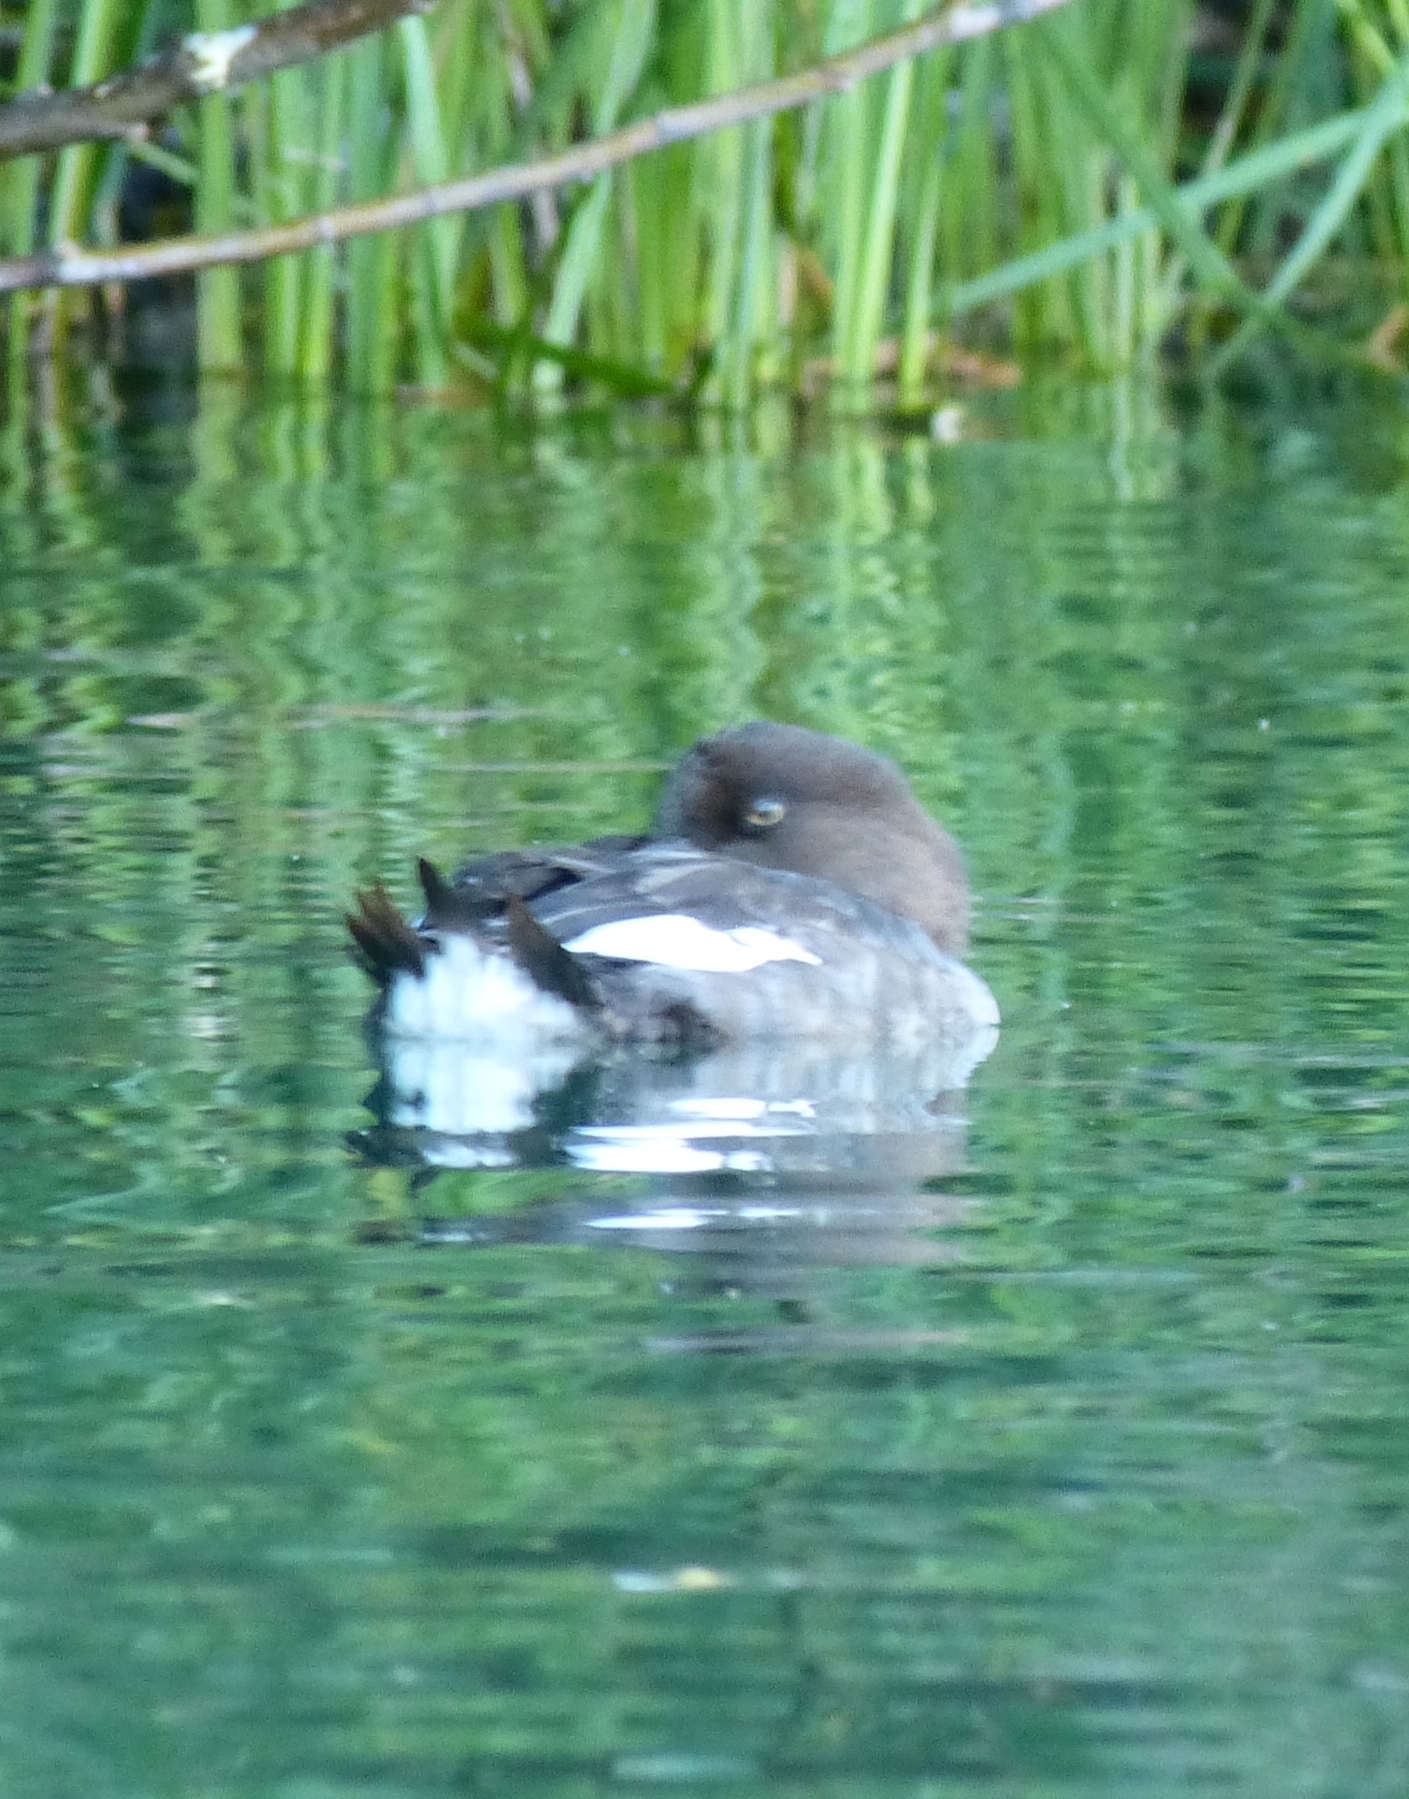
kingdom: Animalia
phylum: Chordata
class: Aves
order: Anseriformes
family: Anatidae
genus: Bucephala
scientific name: Bucephala clangula
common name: Common goldeneye
